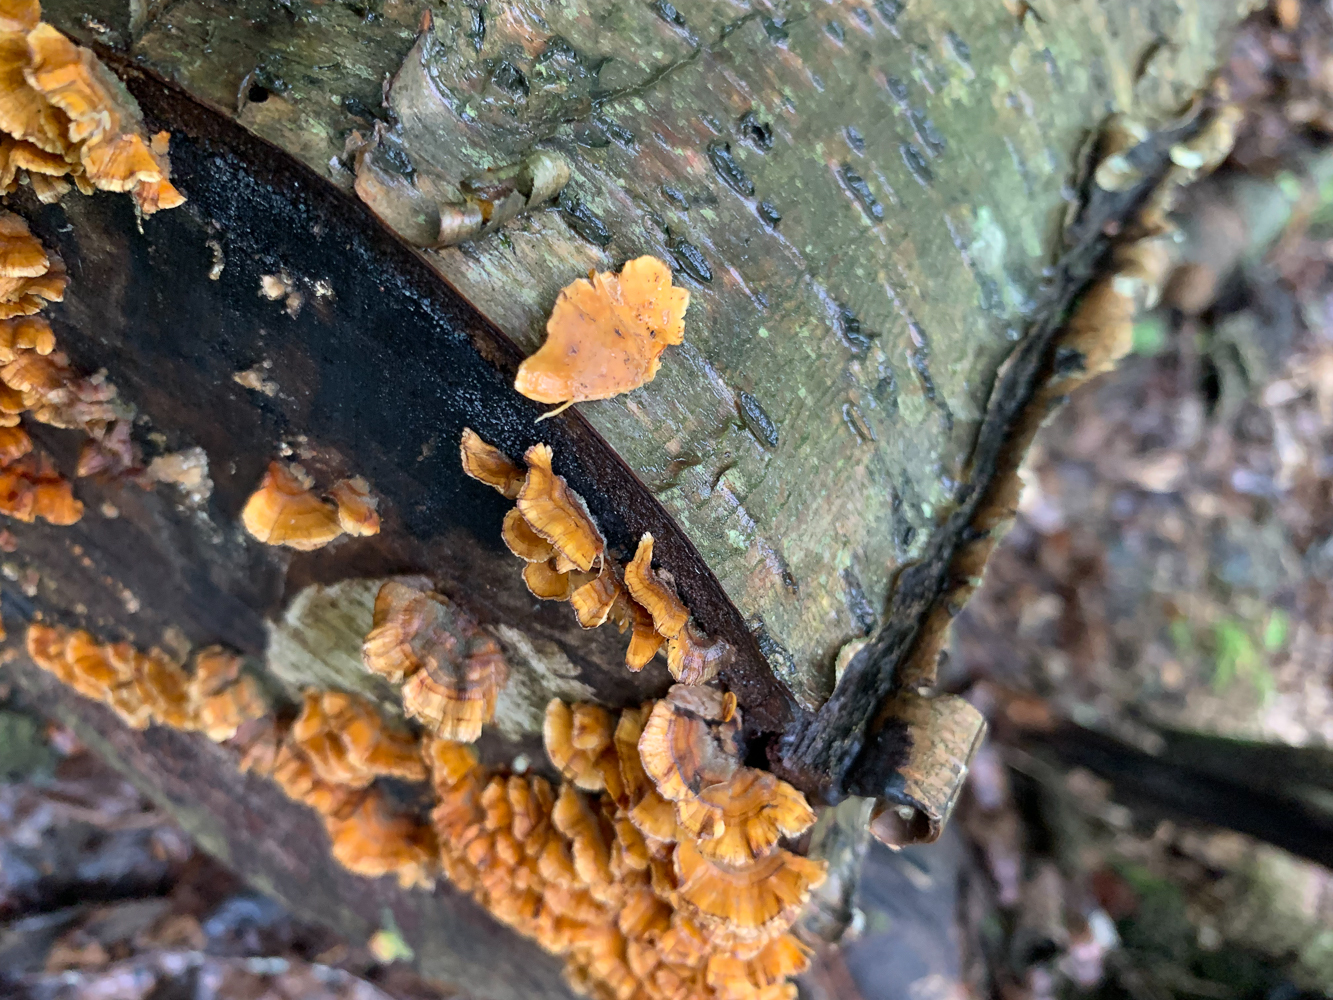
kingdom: Fungi
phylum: Basidiomycota
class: Agaricomycetes
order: Russulales
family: Stereaceae
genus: Stereum
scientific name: Stereum complicatum
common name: Crowded parchment
